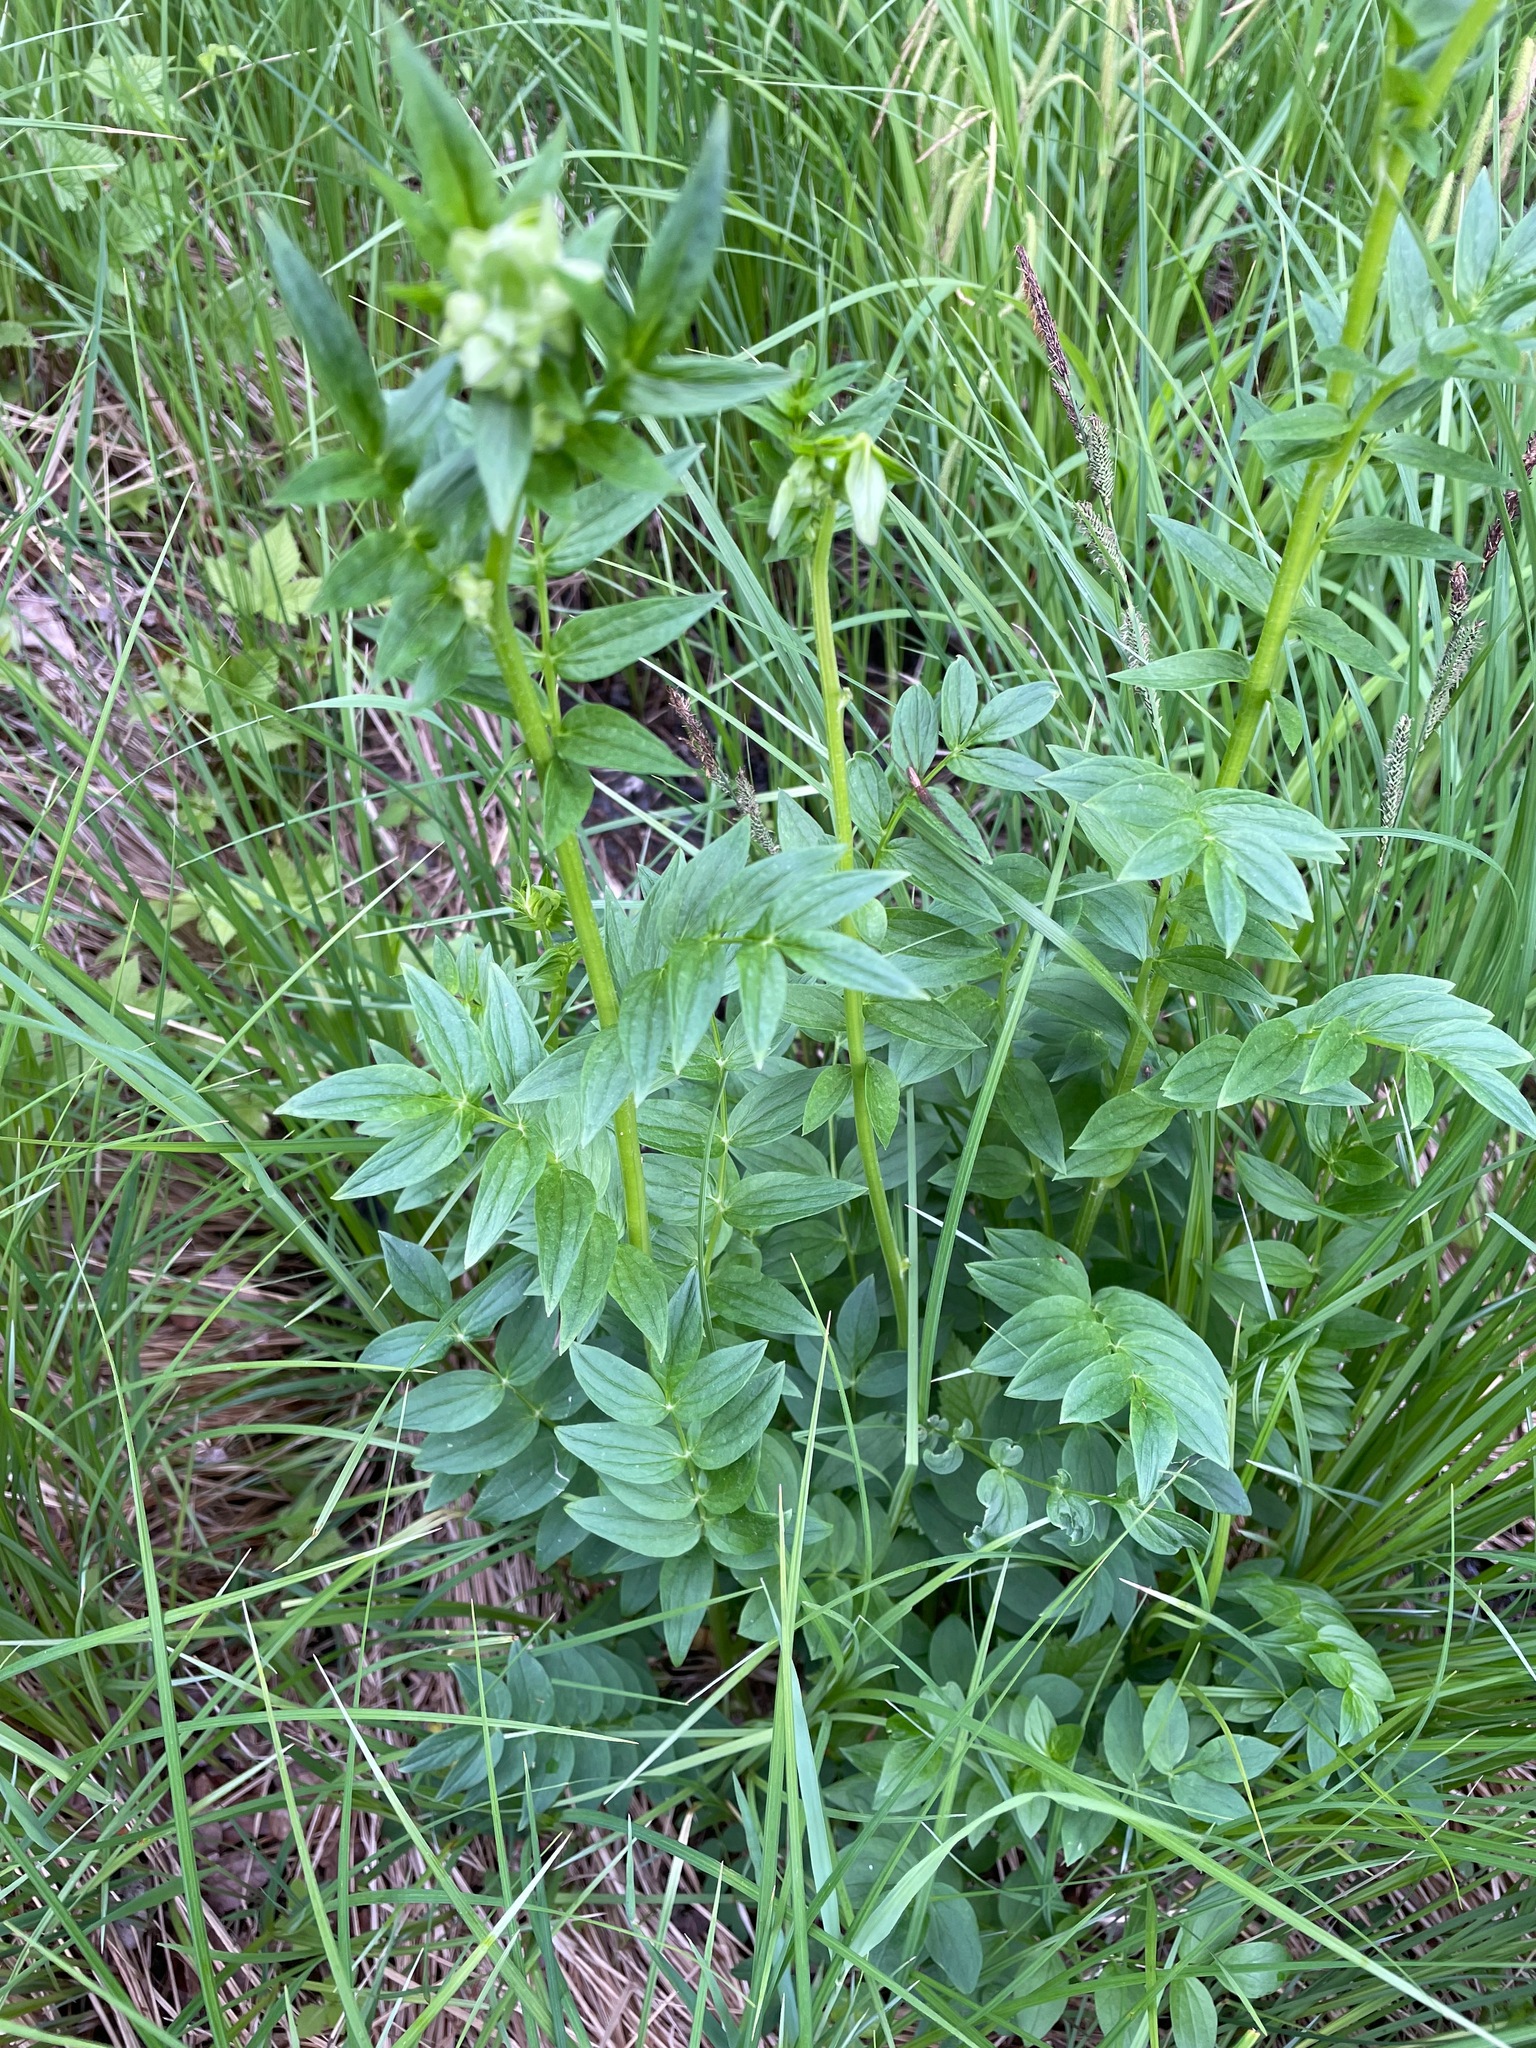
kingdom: Plantae
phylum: Tracheophyta
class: Magnoliopsida
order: Ericales
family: Polemoniaceae
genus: Polemonium
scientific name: Polemonium vanbruntiae
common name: Bog jacob's-ladder
